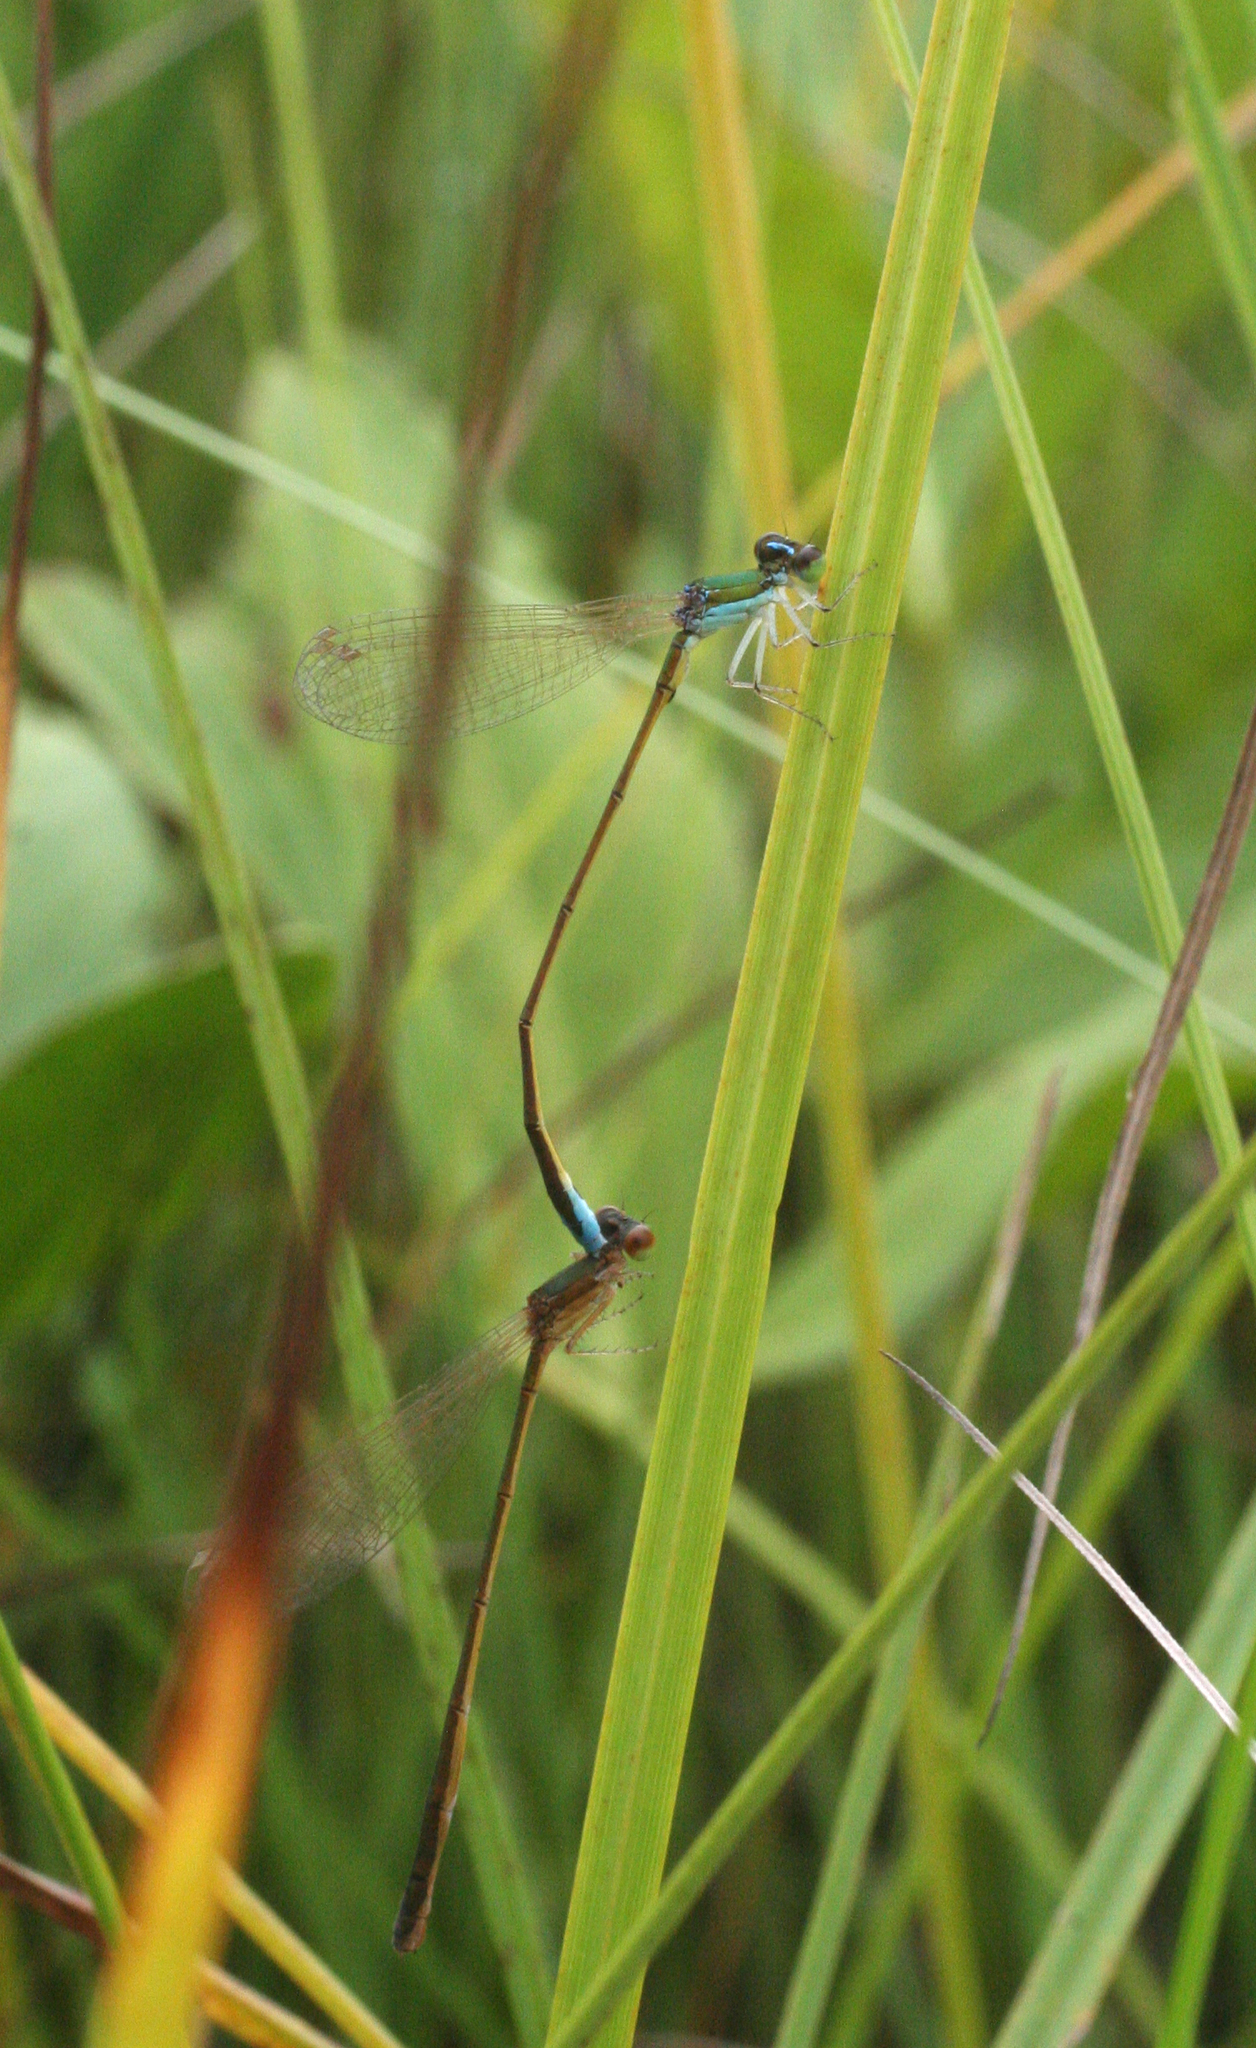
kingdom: Animalia
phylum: Arthropoda
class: Insecta
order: Odonata
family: Coenagrionidae
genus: Nehalennia
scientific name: Nehalennia speciosa
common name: Sedgling
